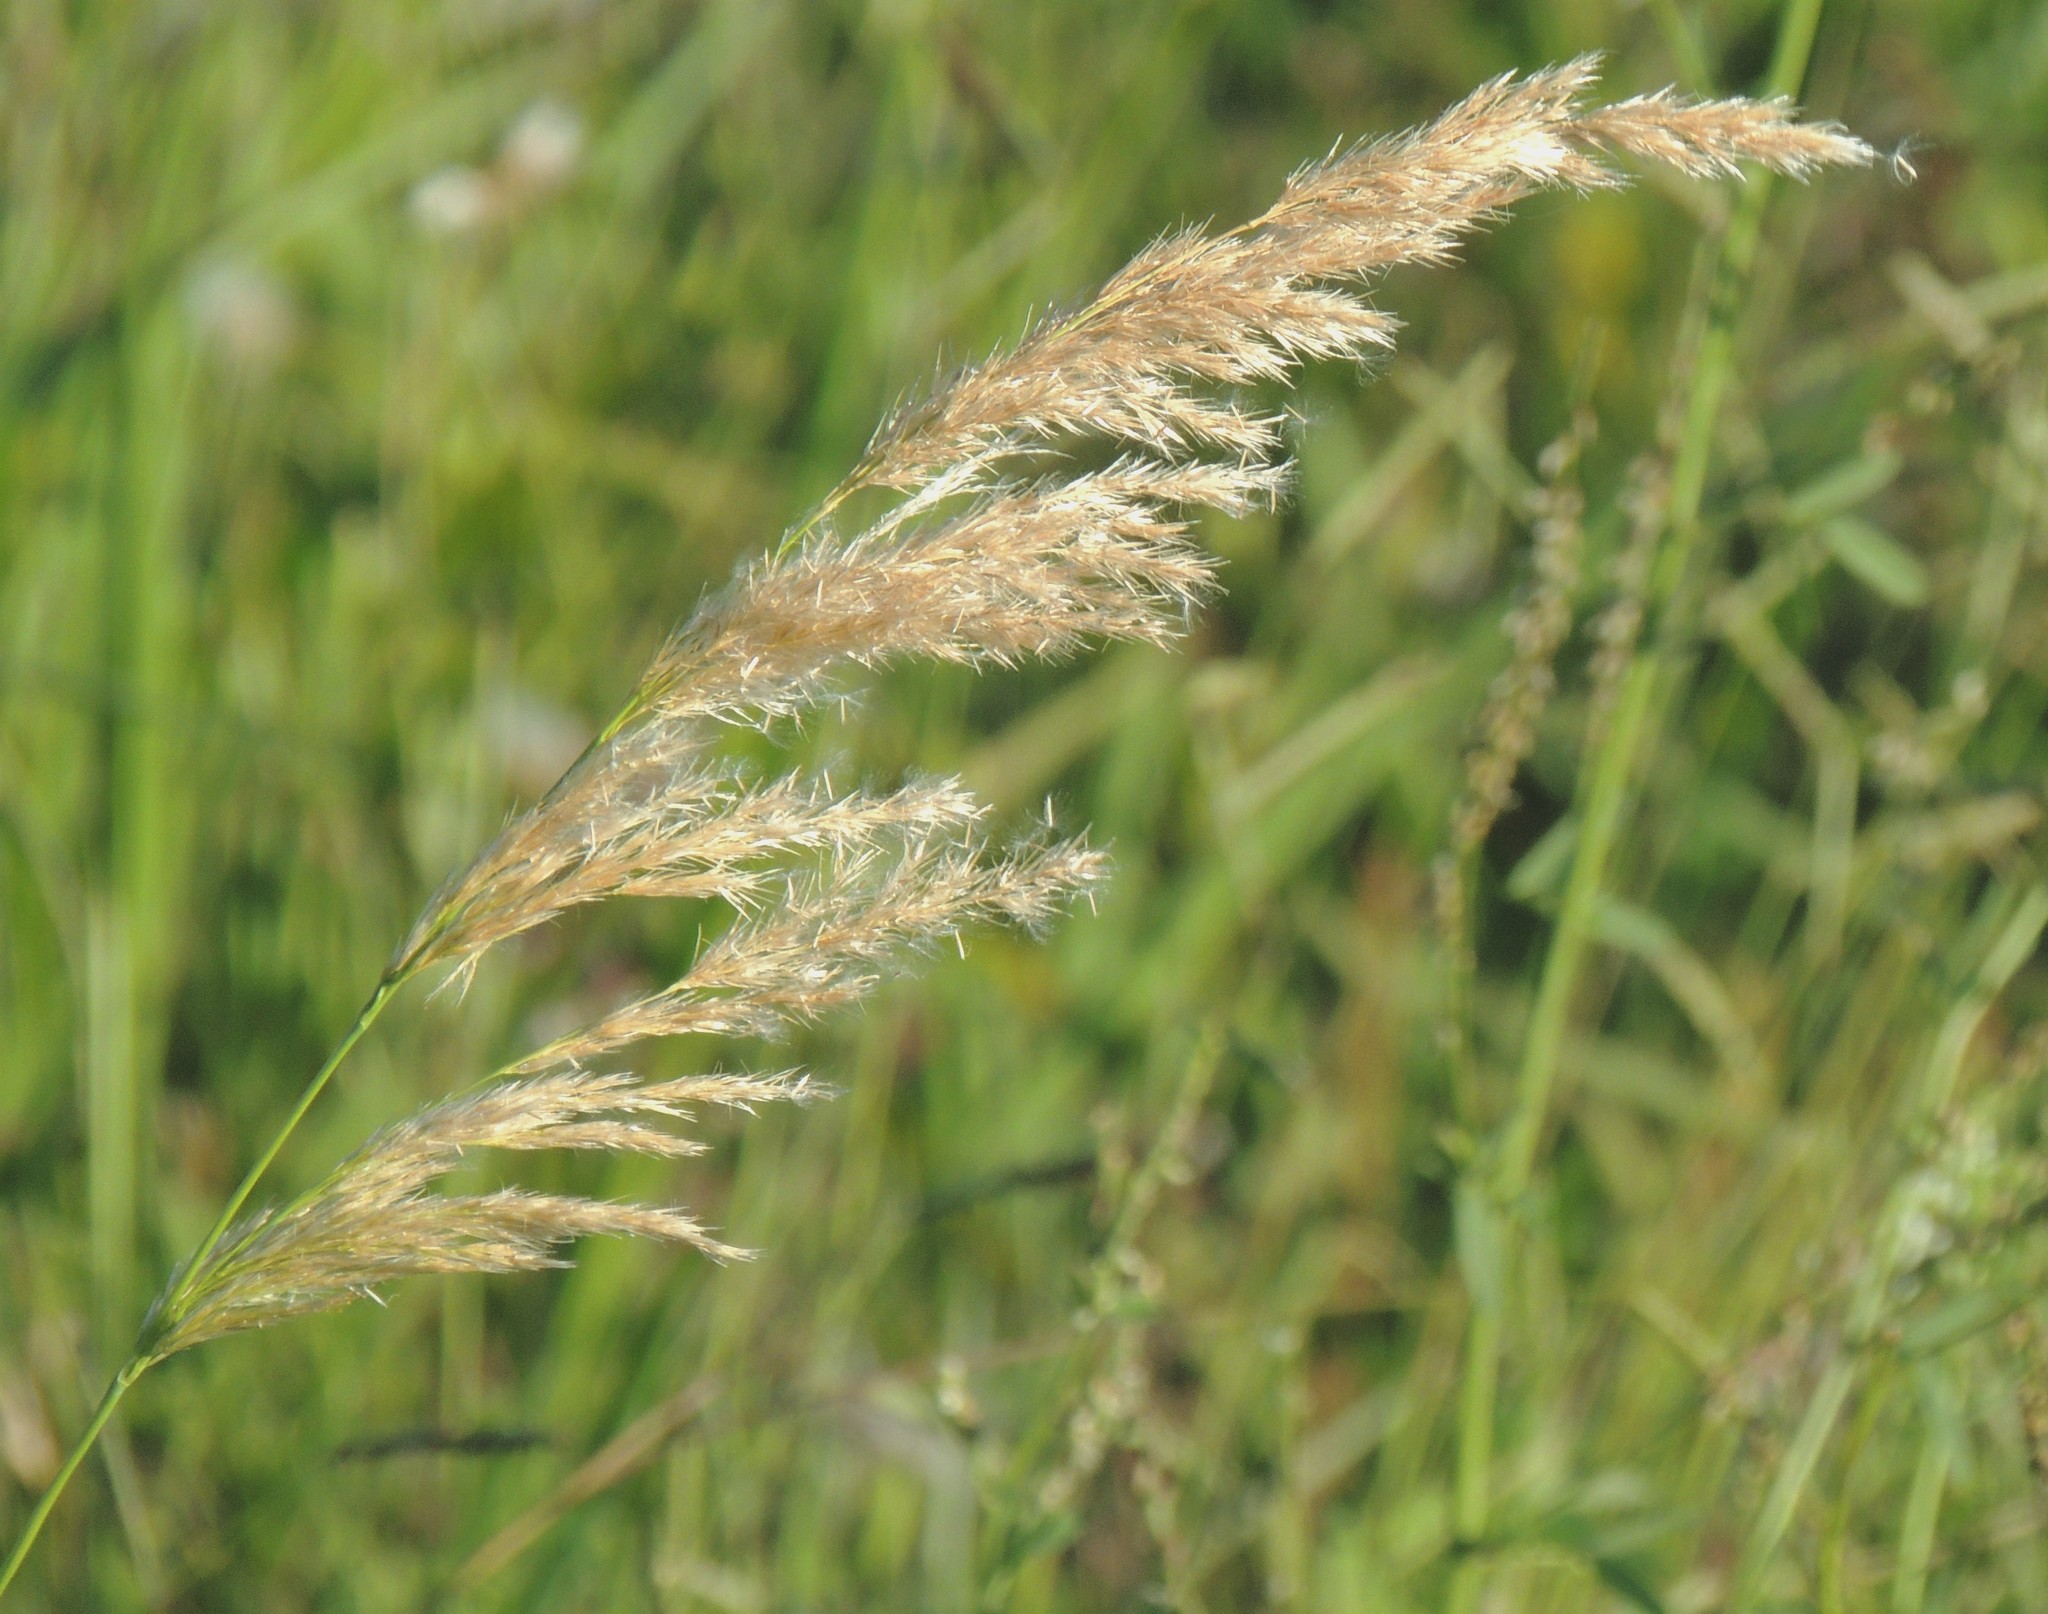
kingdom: Plantae
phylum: Tracheophyta
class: Liliopsida
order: Poales
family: Poaceae
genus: Cinnagrostis
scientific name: Cinnagrostis viridiflavescens
